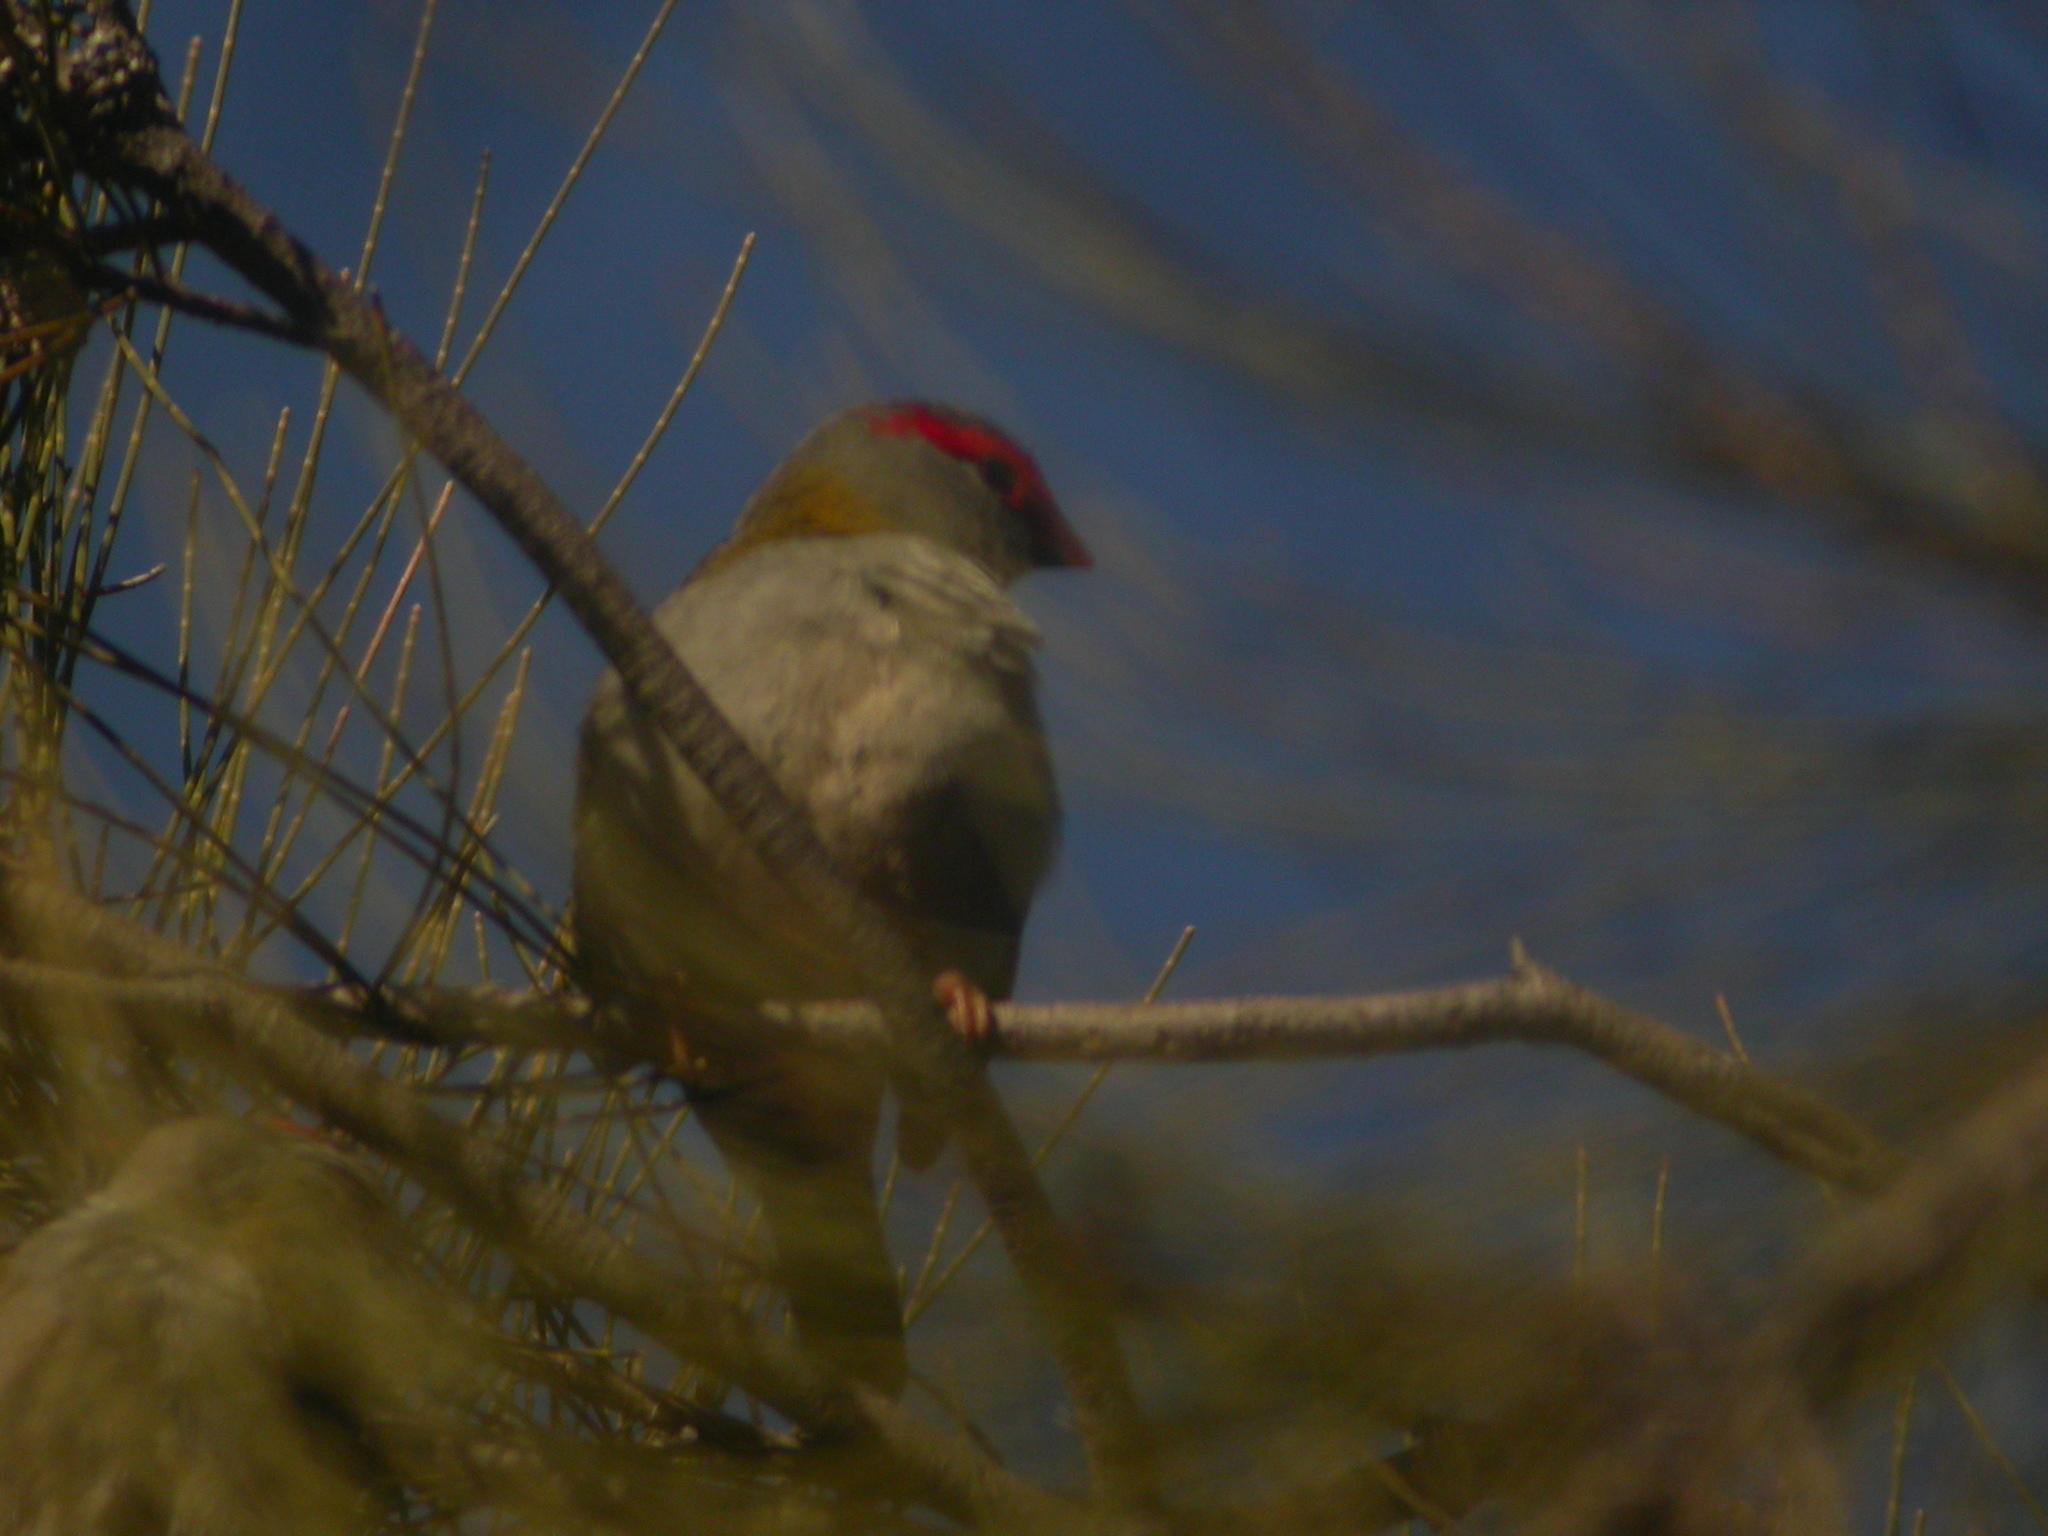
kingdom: Animalia
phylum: Chordata
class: Aves
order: Passeriformes
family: Estrildidae
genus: Neochmia
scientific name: Neochmia temporalis
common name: Red-browed finch
